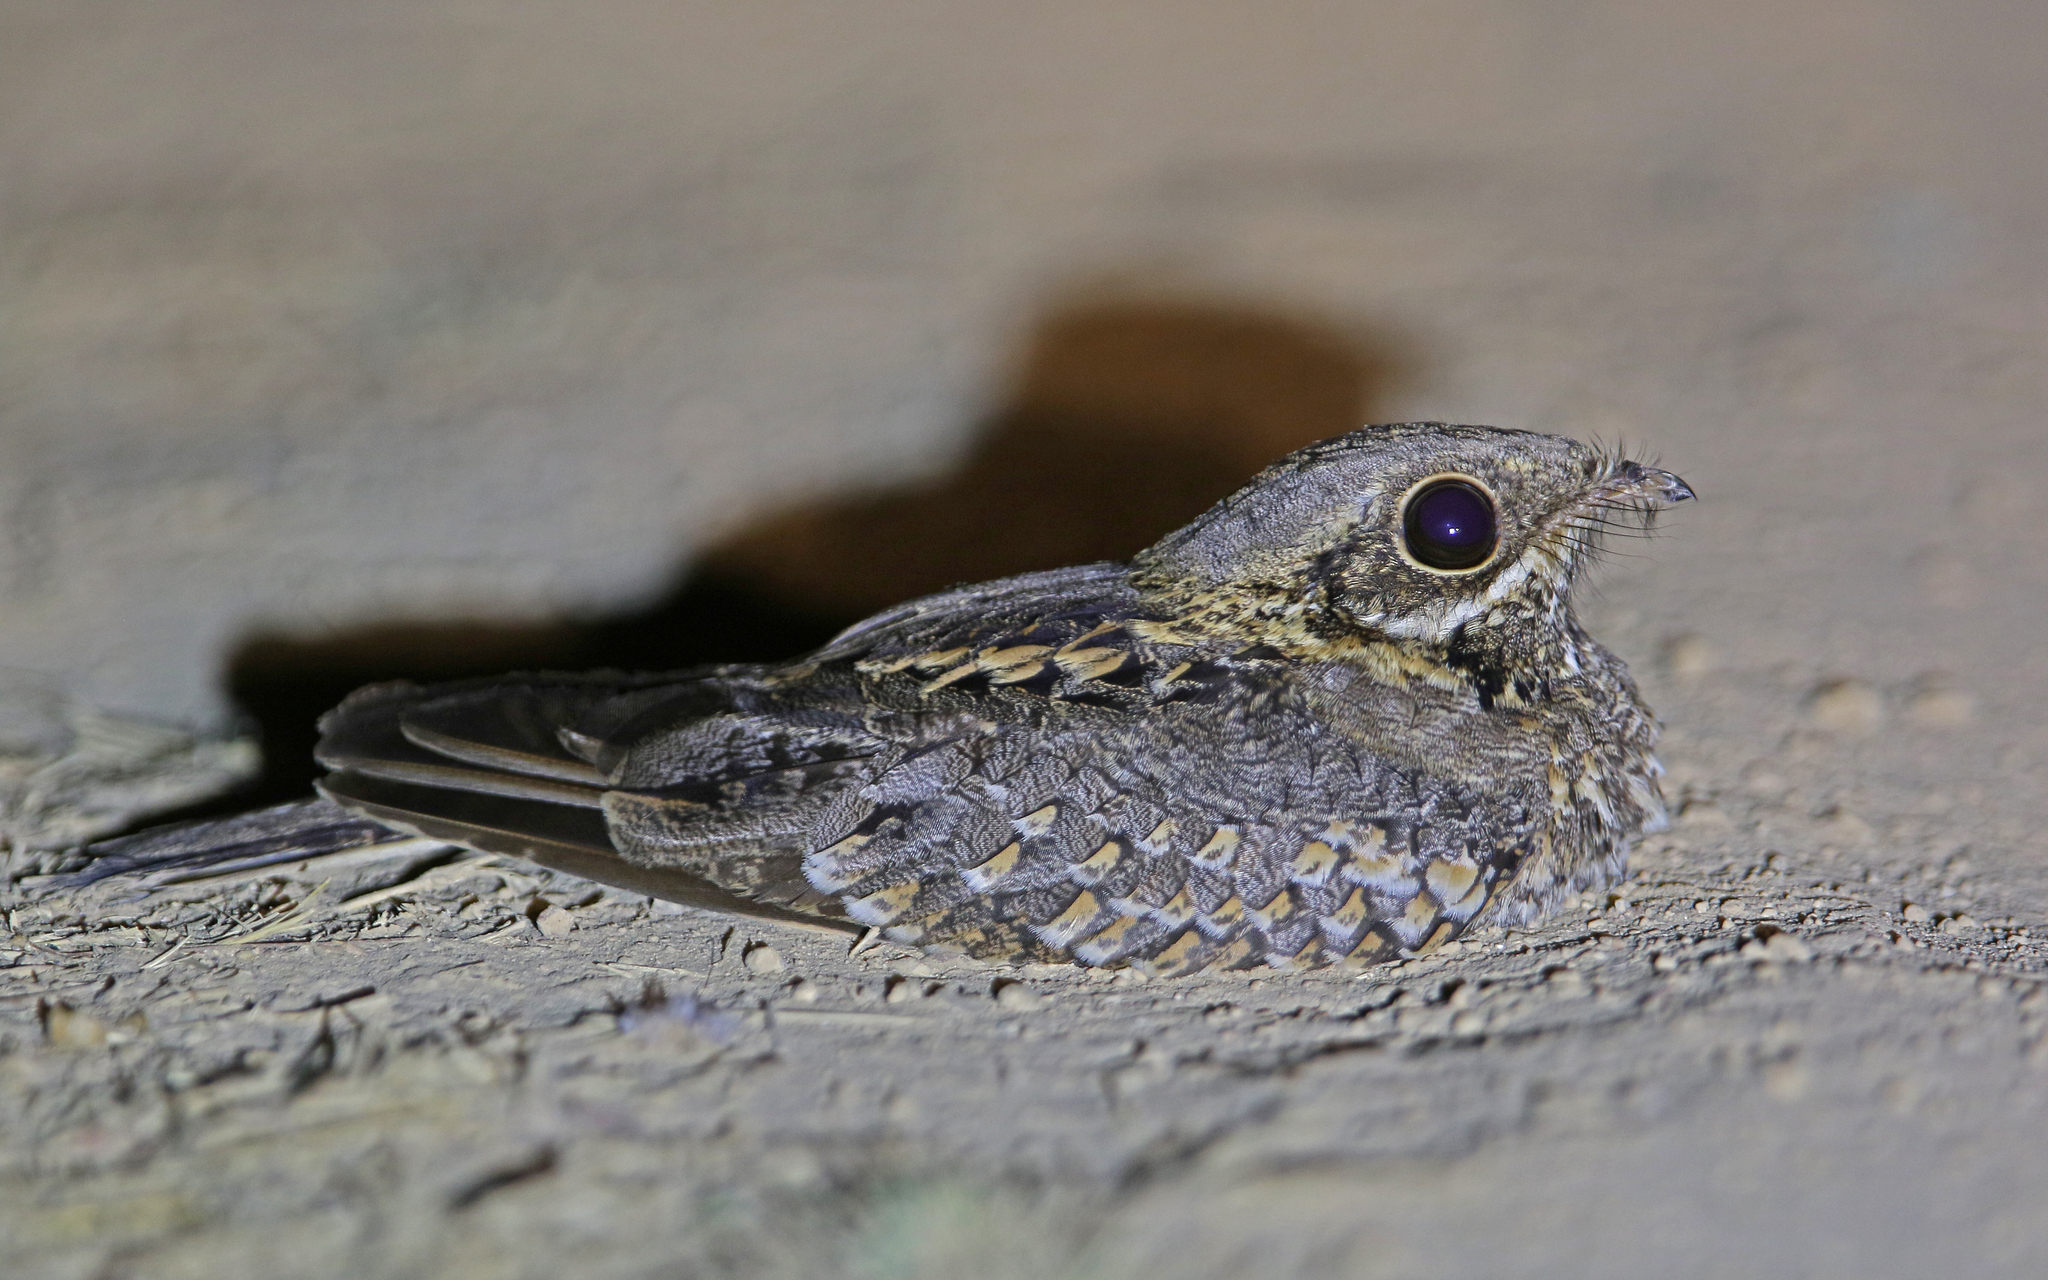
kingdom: Animalia
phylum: Chordata
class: Aves
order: Caprimulgiformes
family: Caprimulgidae
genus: Caprimulgus
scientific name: Caprimulgus asiaticus
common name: Indian nightjar
